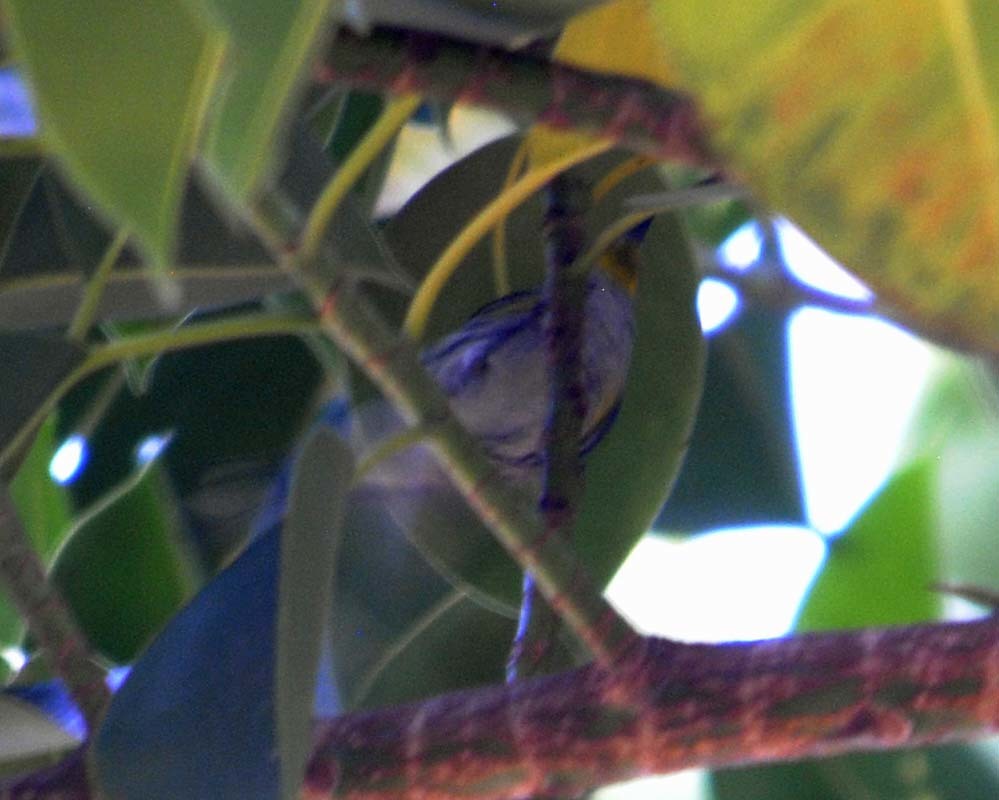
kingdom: Animalia
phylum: Chordata
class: Aves
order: Passeriformes
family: Parulidae
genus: Setophaga
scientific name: Setophaga coronata
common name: Myrtle warbler
